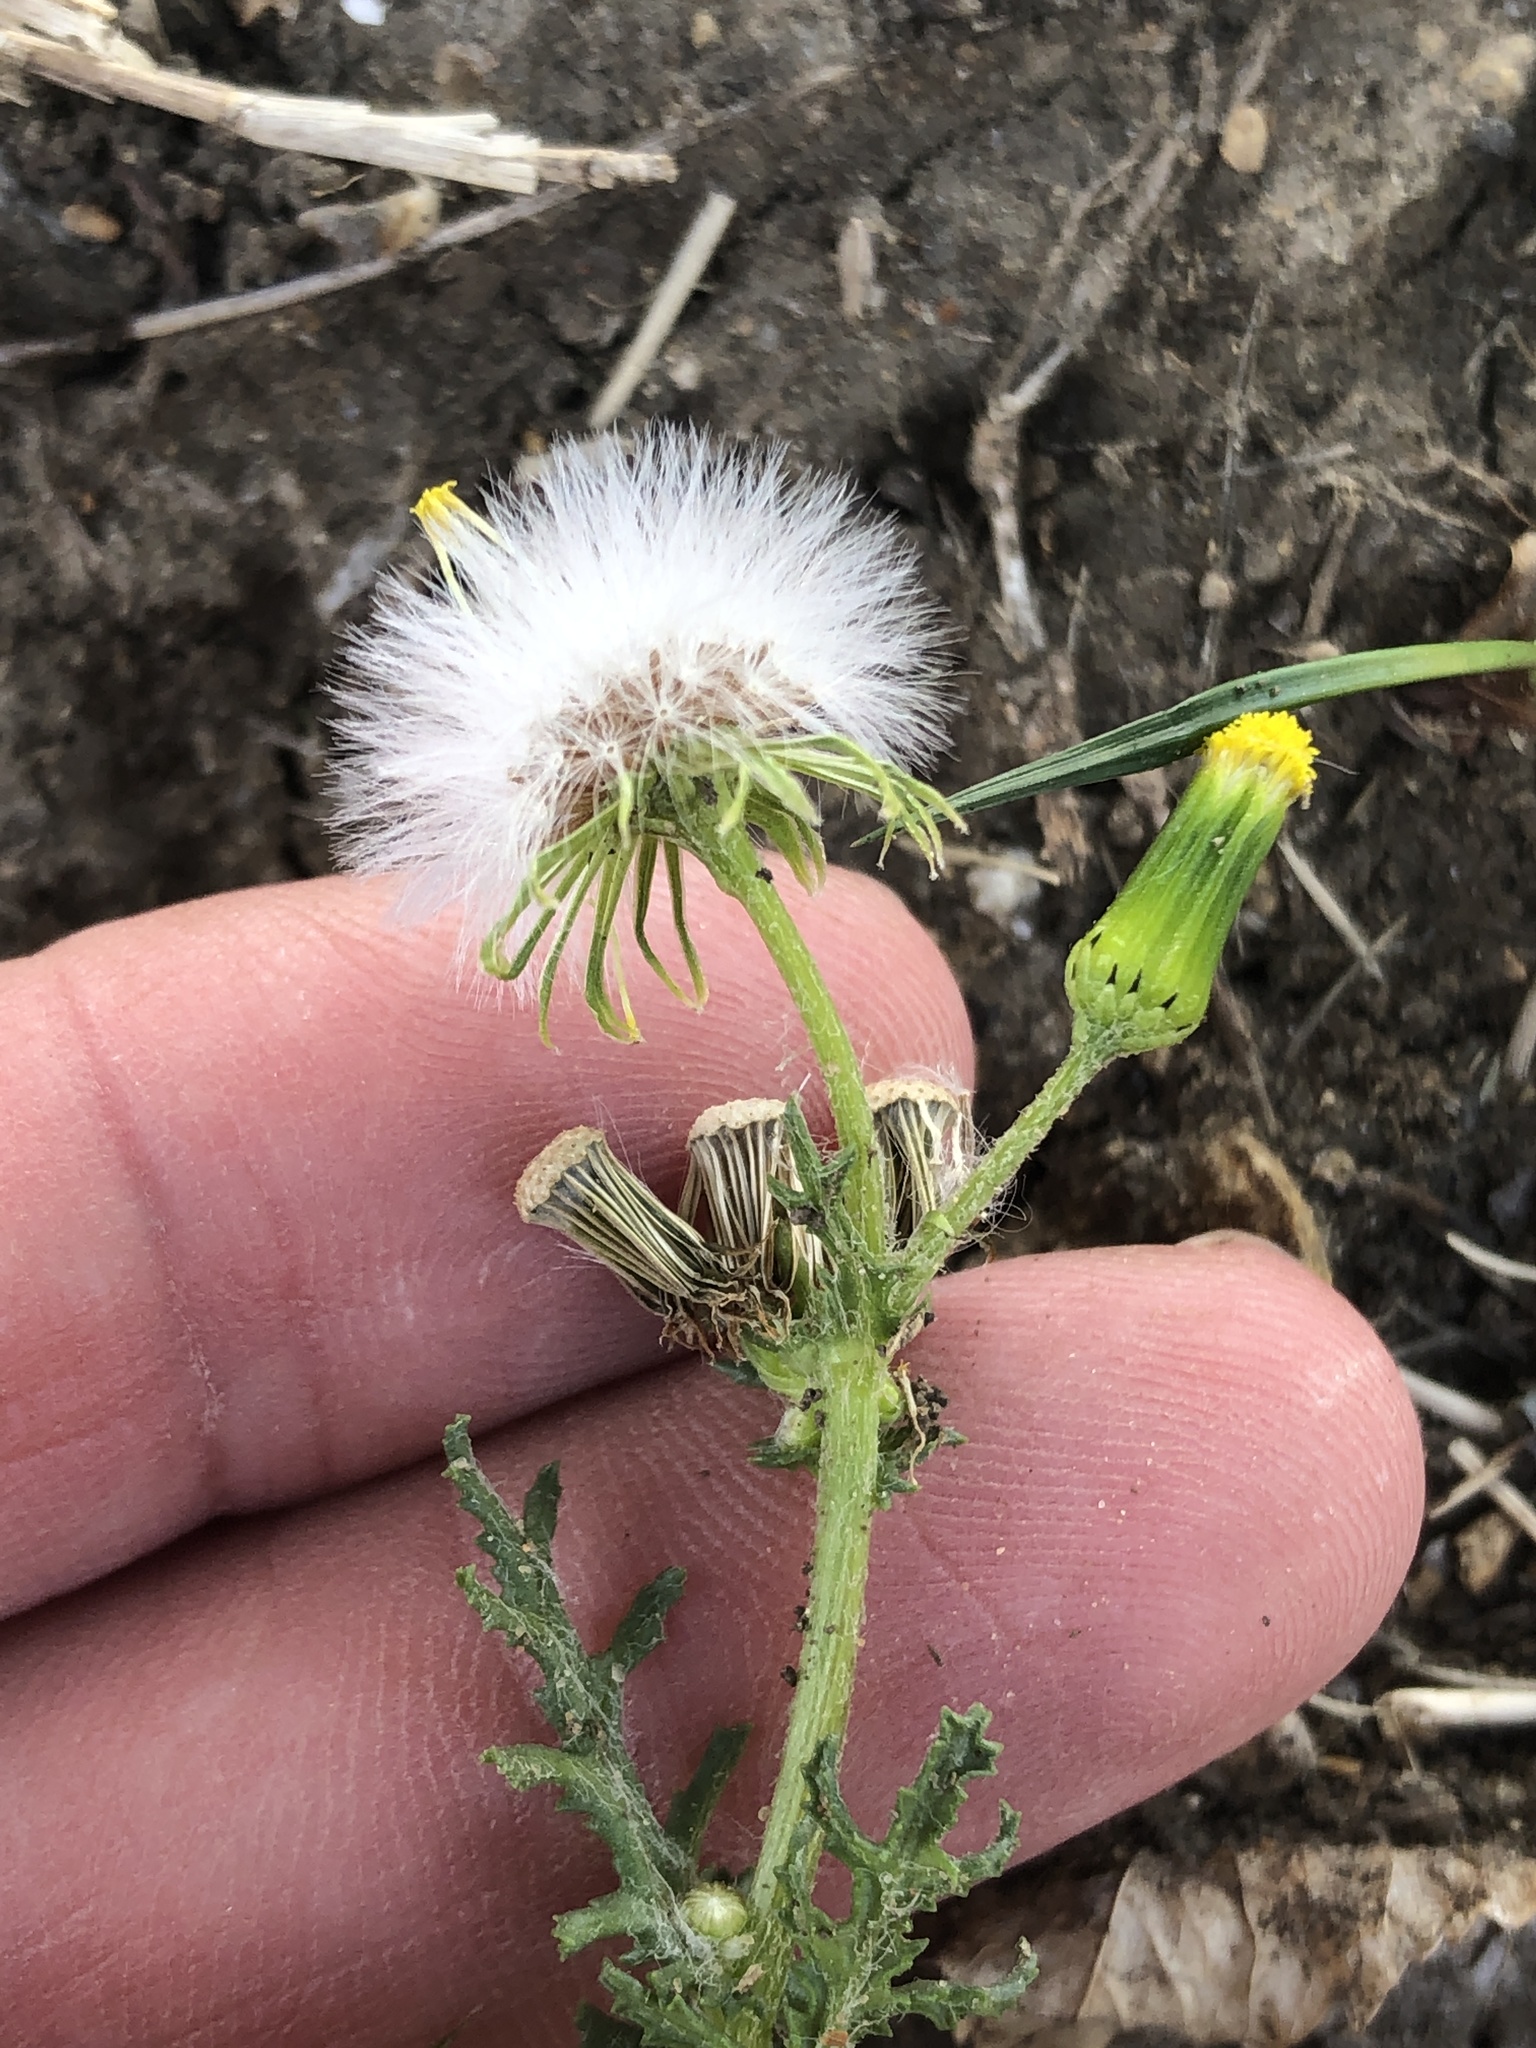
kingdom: Plantae
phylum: Tracheophyta
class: Magnoliopsida
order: Asterales
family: Asteraceae
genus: Senecio
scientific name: Senecio vulgaris
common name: Old-man-in-the-spring
